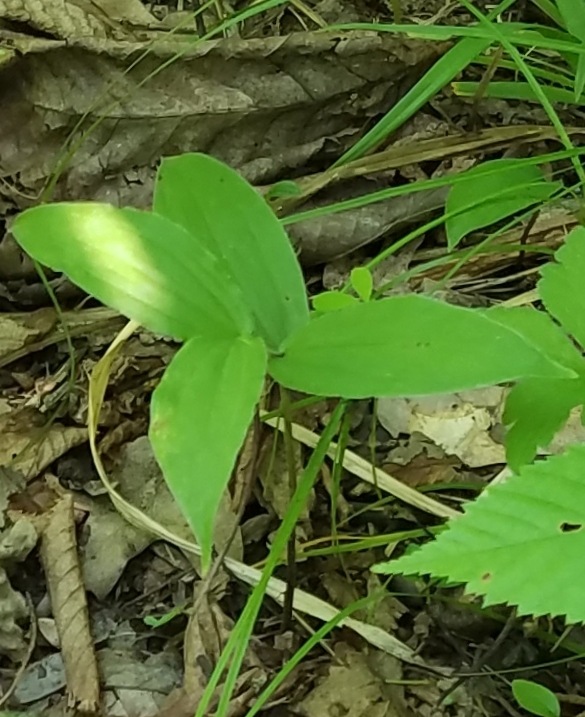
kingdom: Plantae
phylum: Tracheophyta
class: Liliopsida
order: Asparagales
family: Asparagaceae
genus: Maianthemum
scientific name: Maianthemum racemosum
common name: False spikenard
